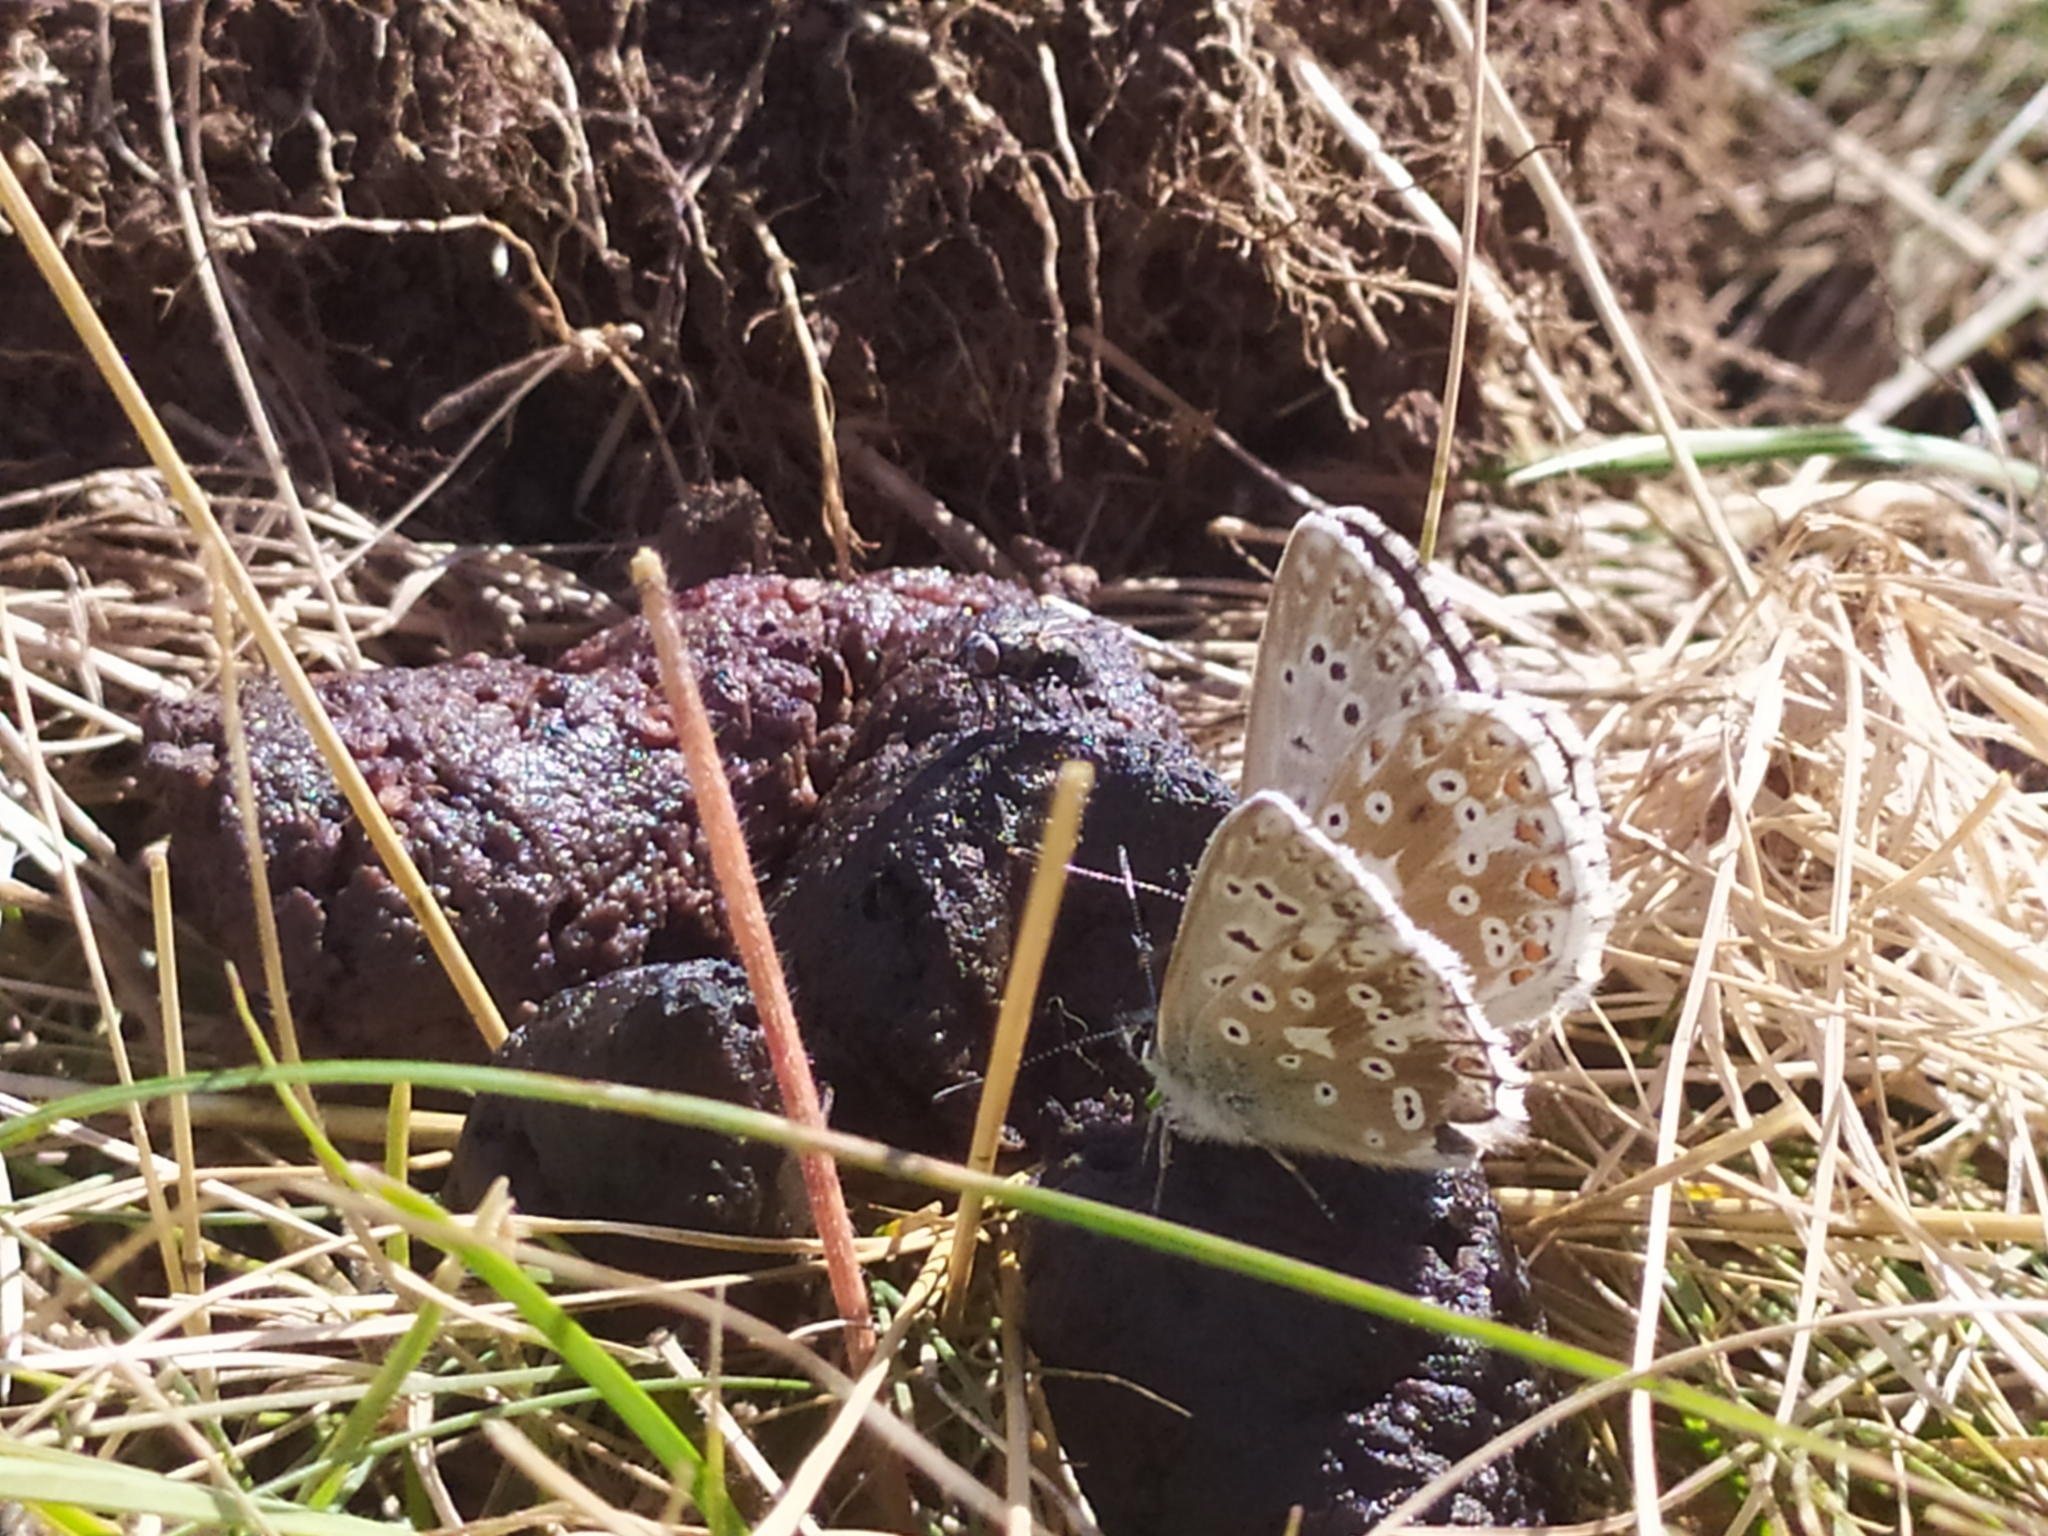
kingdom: Animalia
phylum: Arthropoda
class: Insecta
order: Lepidoptera
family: Lycaenidae
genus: Lysandra
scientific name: Lysandra coridon
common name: Chalkhill blue
